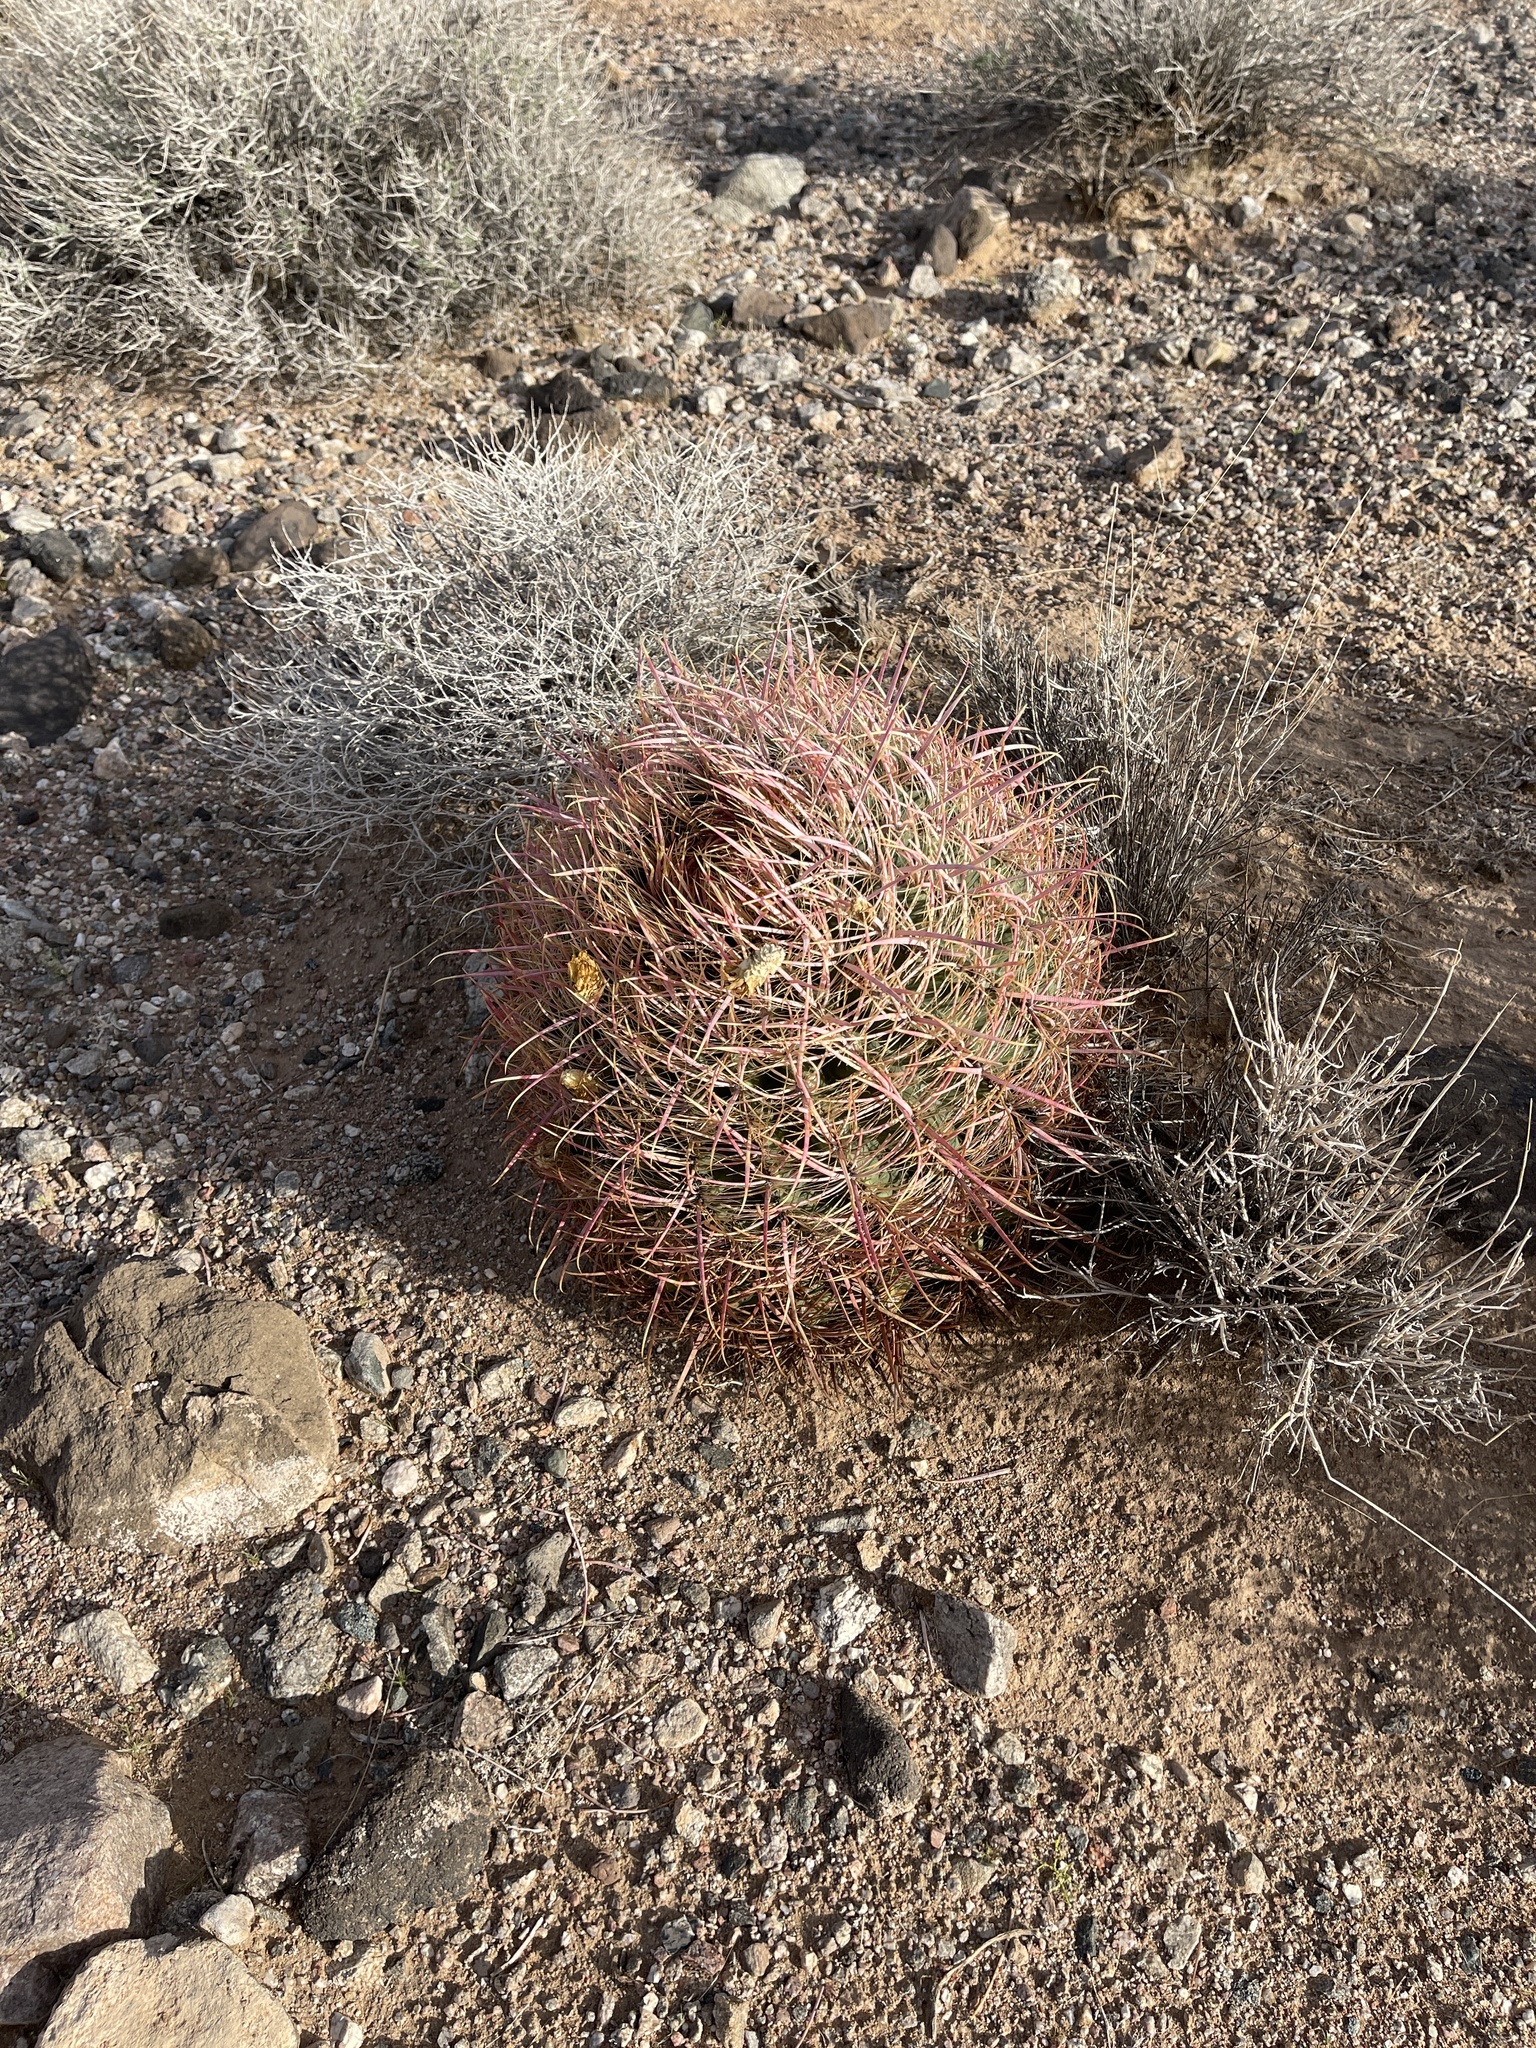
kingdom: Plantae
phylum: Tracheophyta
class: Magnoliopsida
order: Caryophyllales
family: Cactaceae
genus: Ferocactus
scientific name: Ferocactus cylindraceus
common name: California barrel cactus
